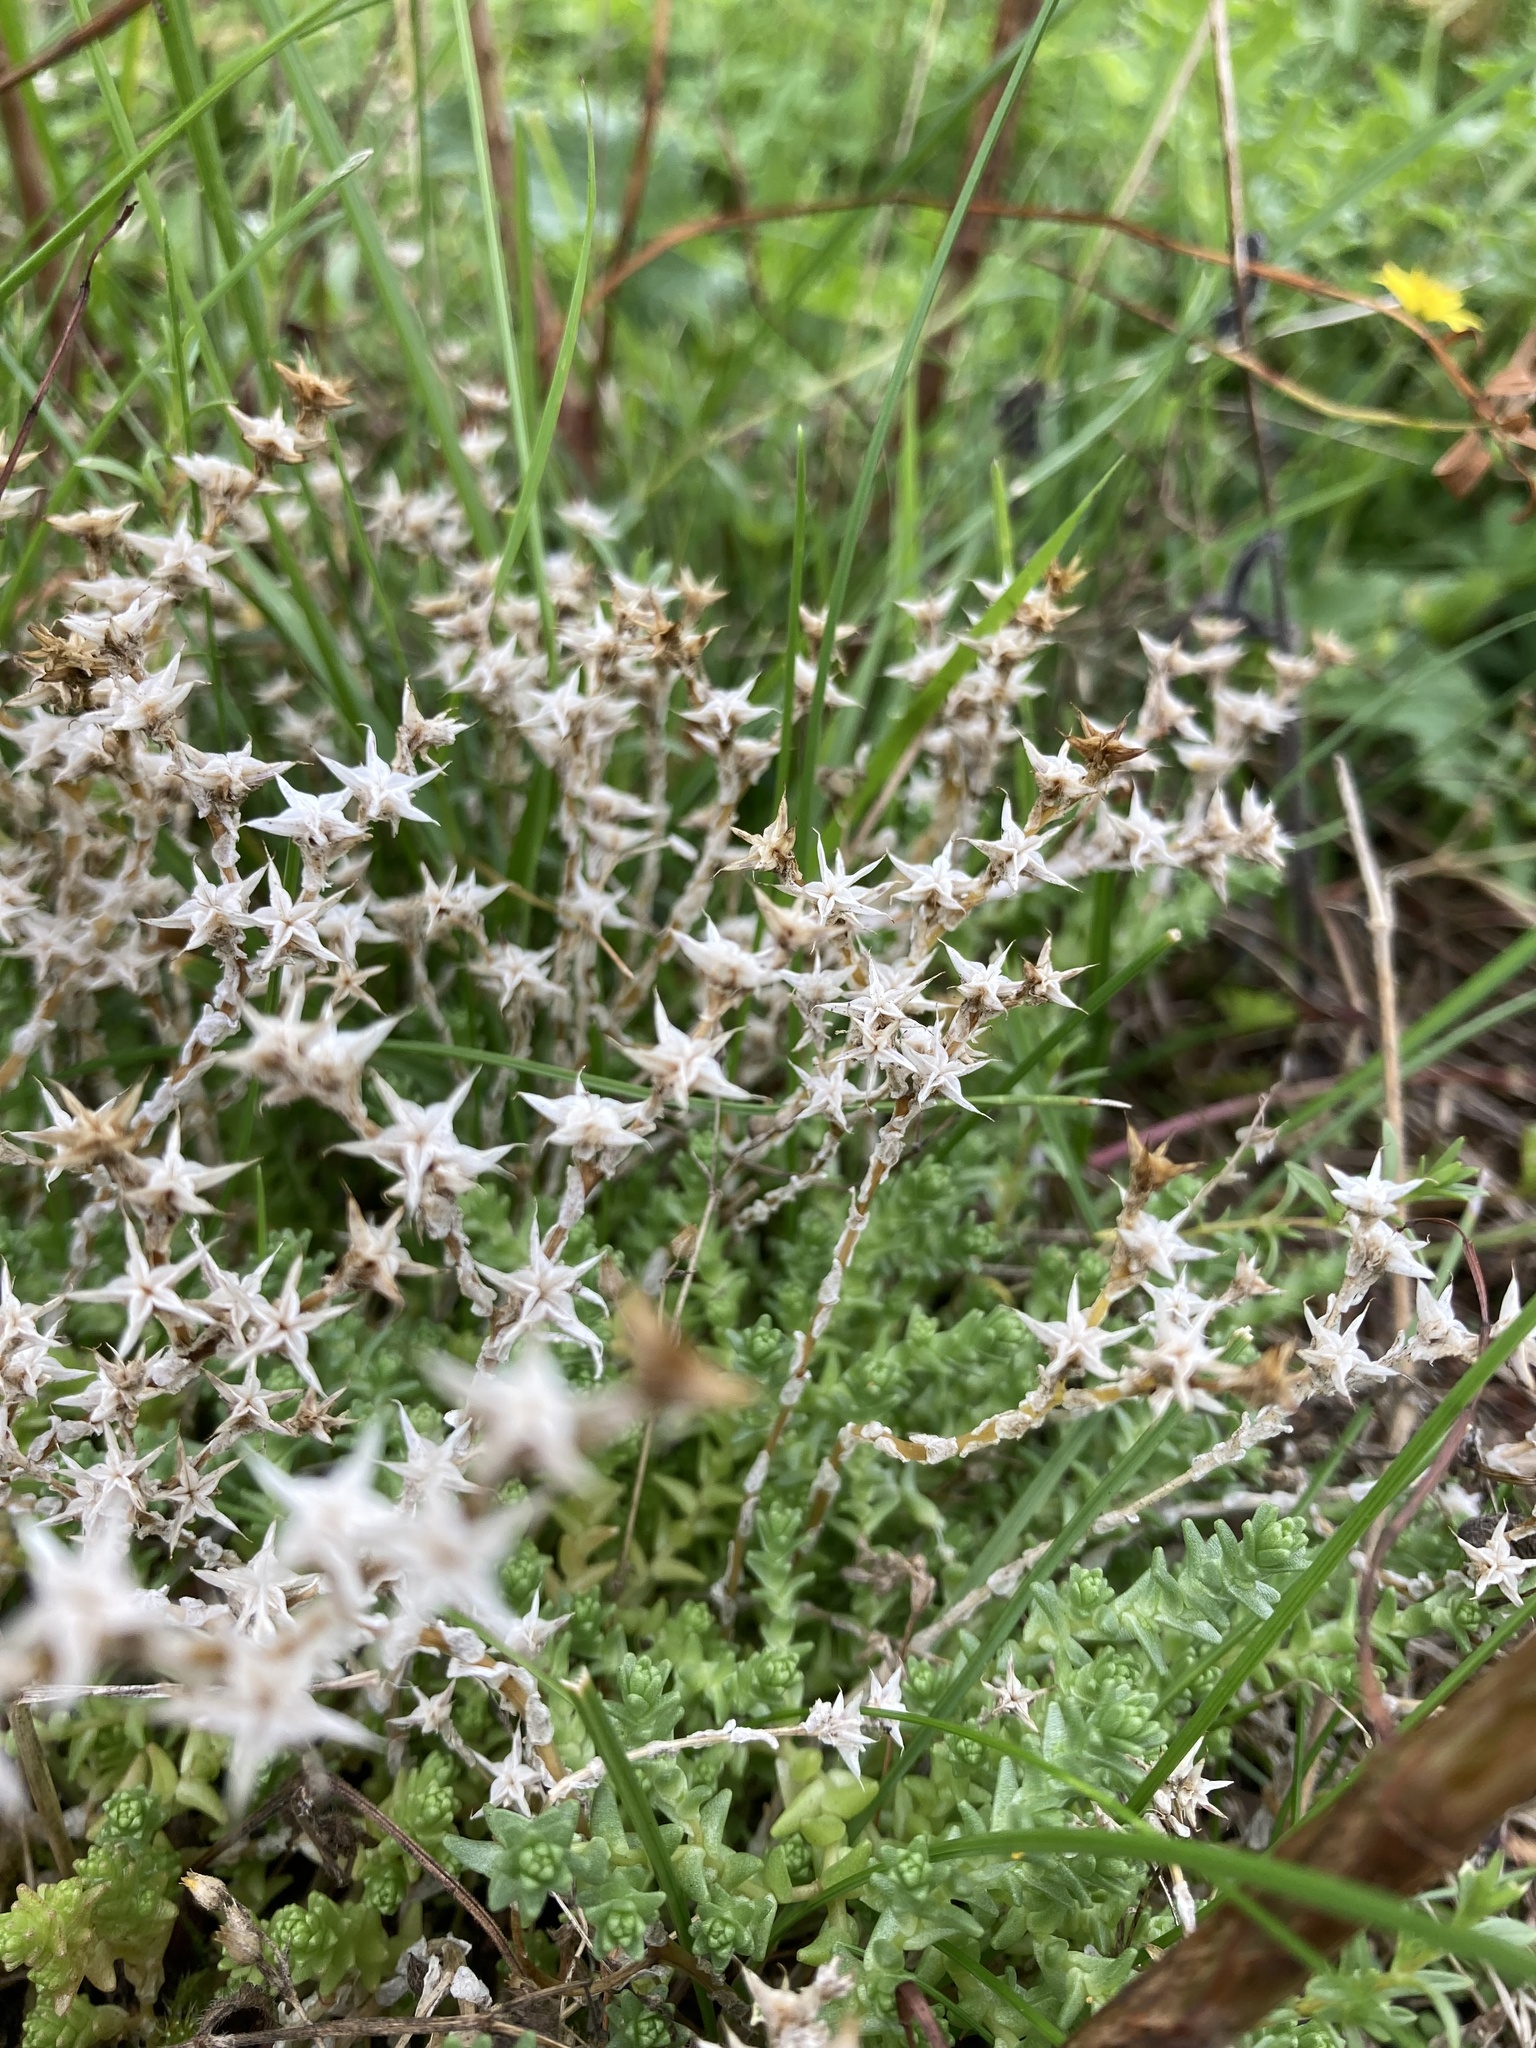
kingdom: Plantae
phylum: Tracheophyta
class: Magnoliopsida
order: Saxifragales
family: Crassulaceae
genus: Sedum
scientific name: Sedum acre
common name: Biting stonecrop
